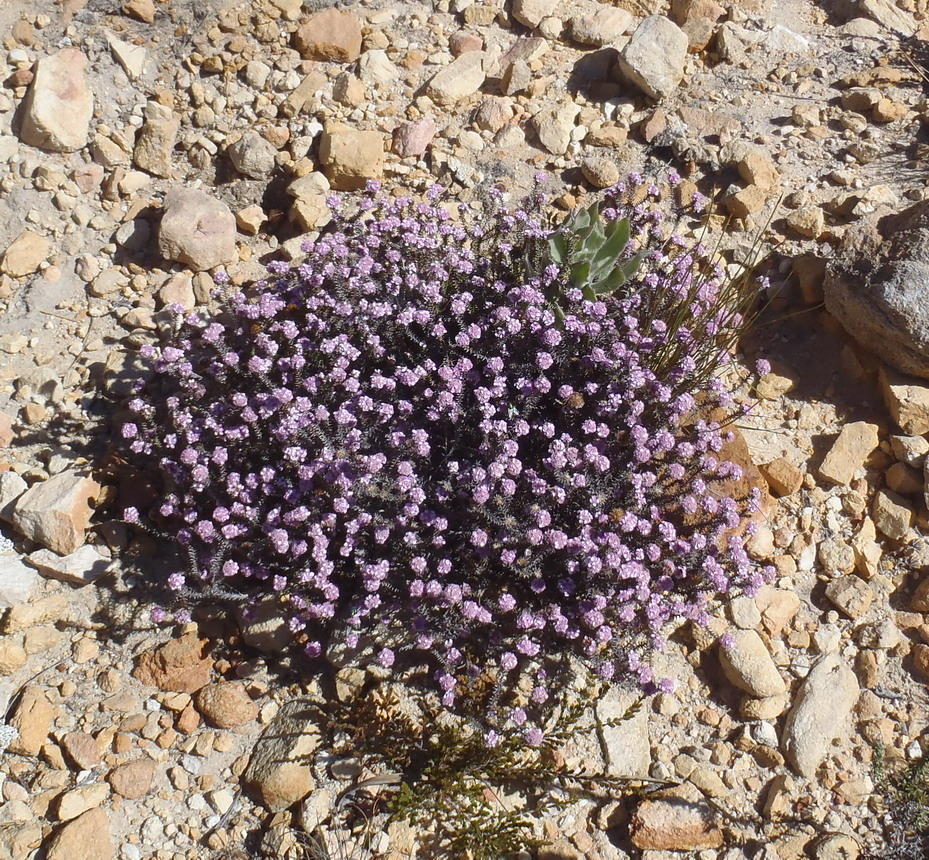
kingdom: Plantae
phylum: Tracheophyta
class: Magnoliopsida
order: Asterales
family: Asteraceae
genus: Disparago
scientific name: Disparago tortilis
